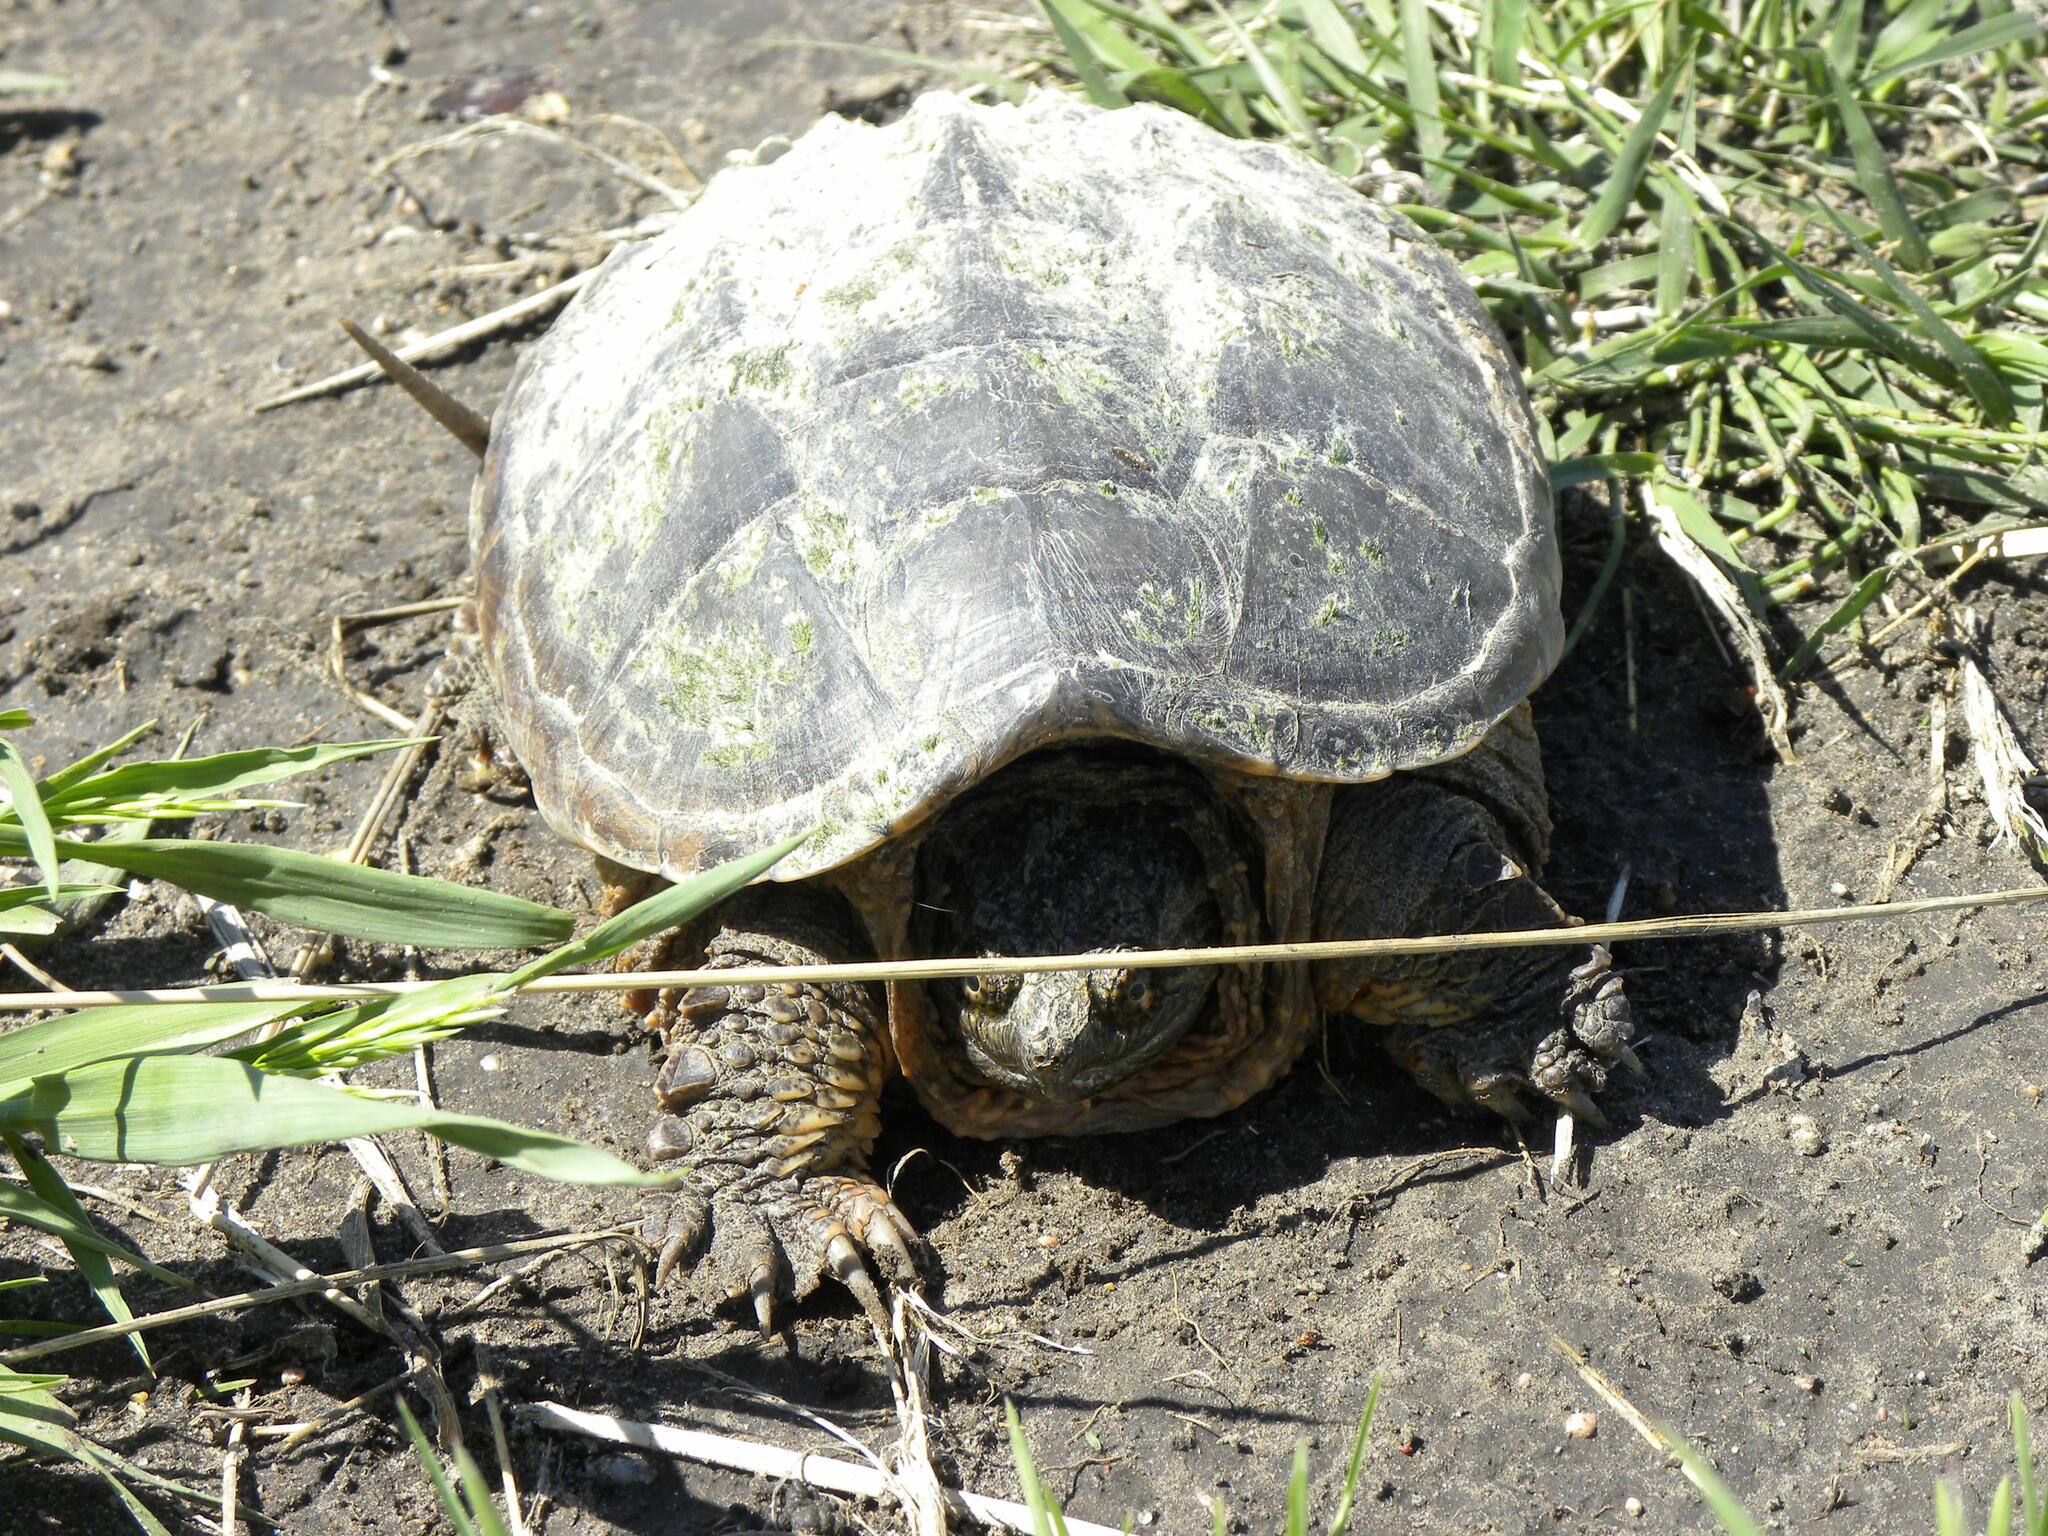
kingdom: Animalia
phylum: Chordata
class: Testudines
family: Chelydridae
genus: Chelydra
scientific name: Chelydra serpentina
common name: Common snapping turtle
